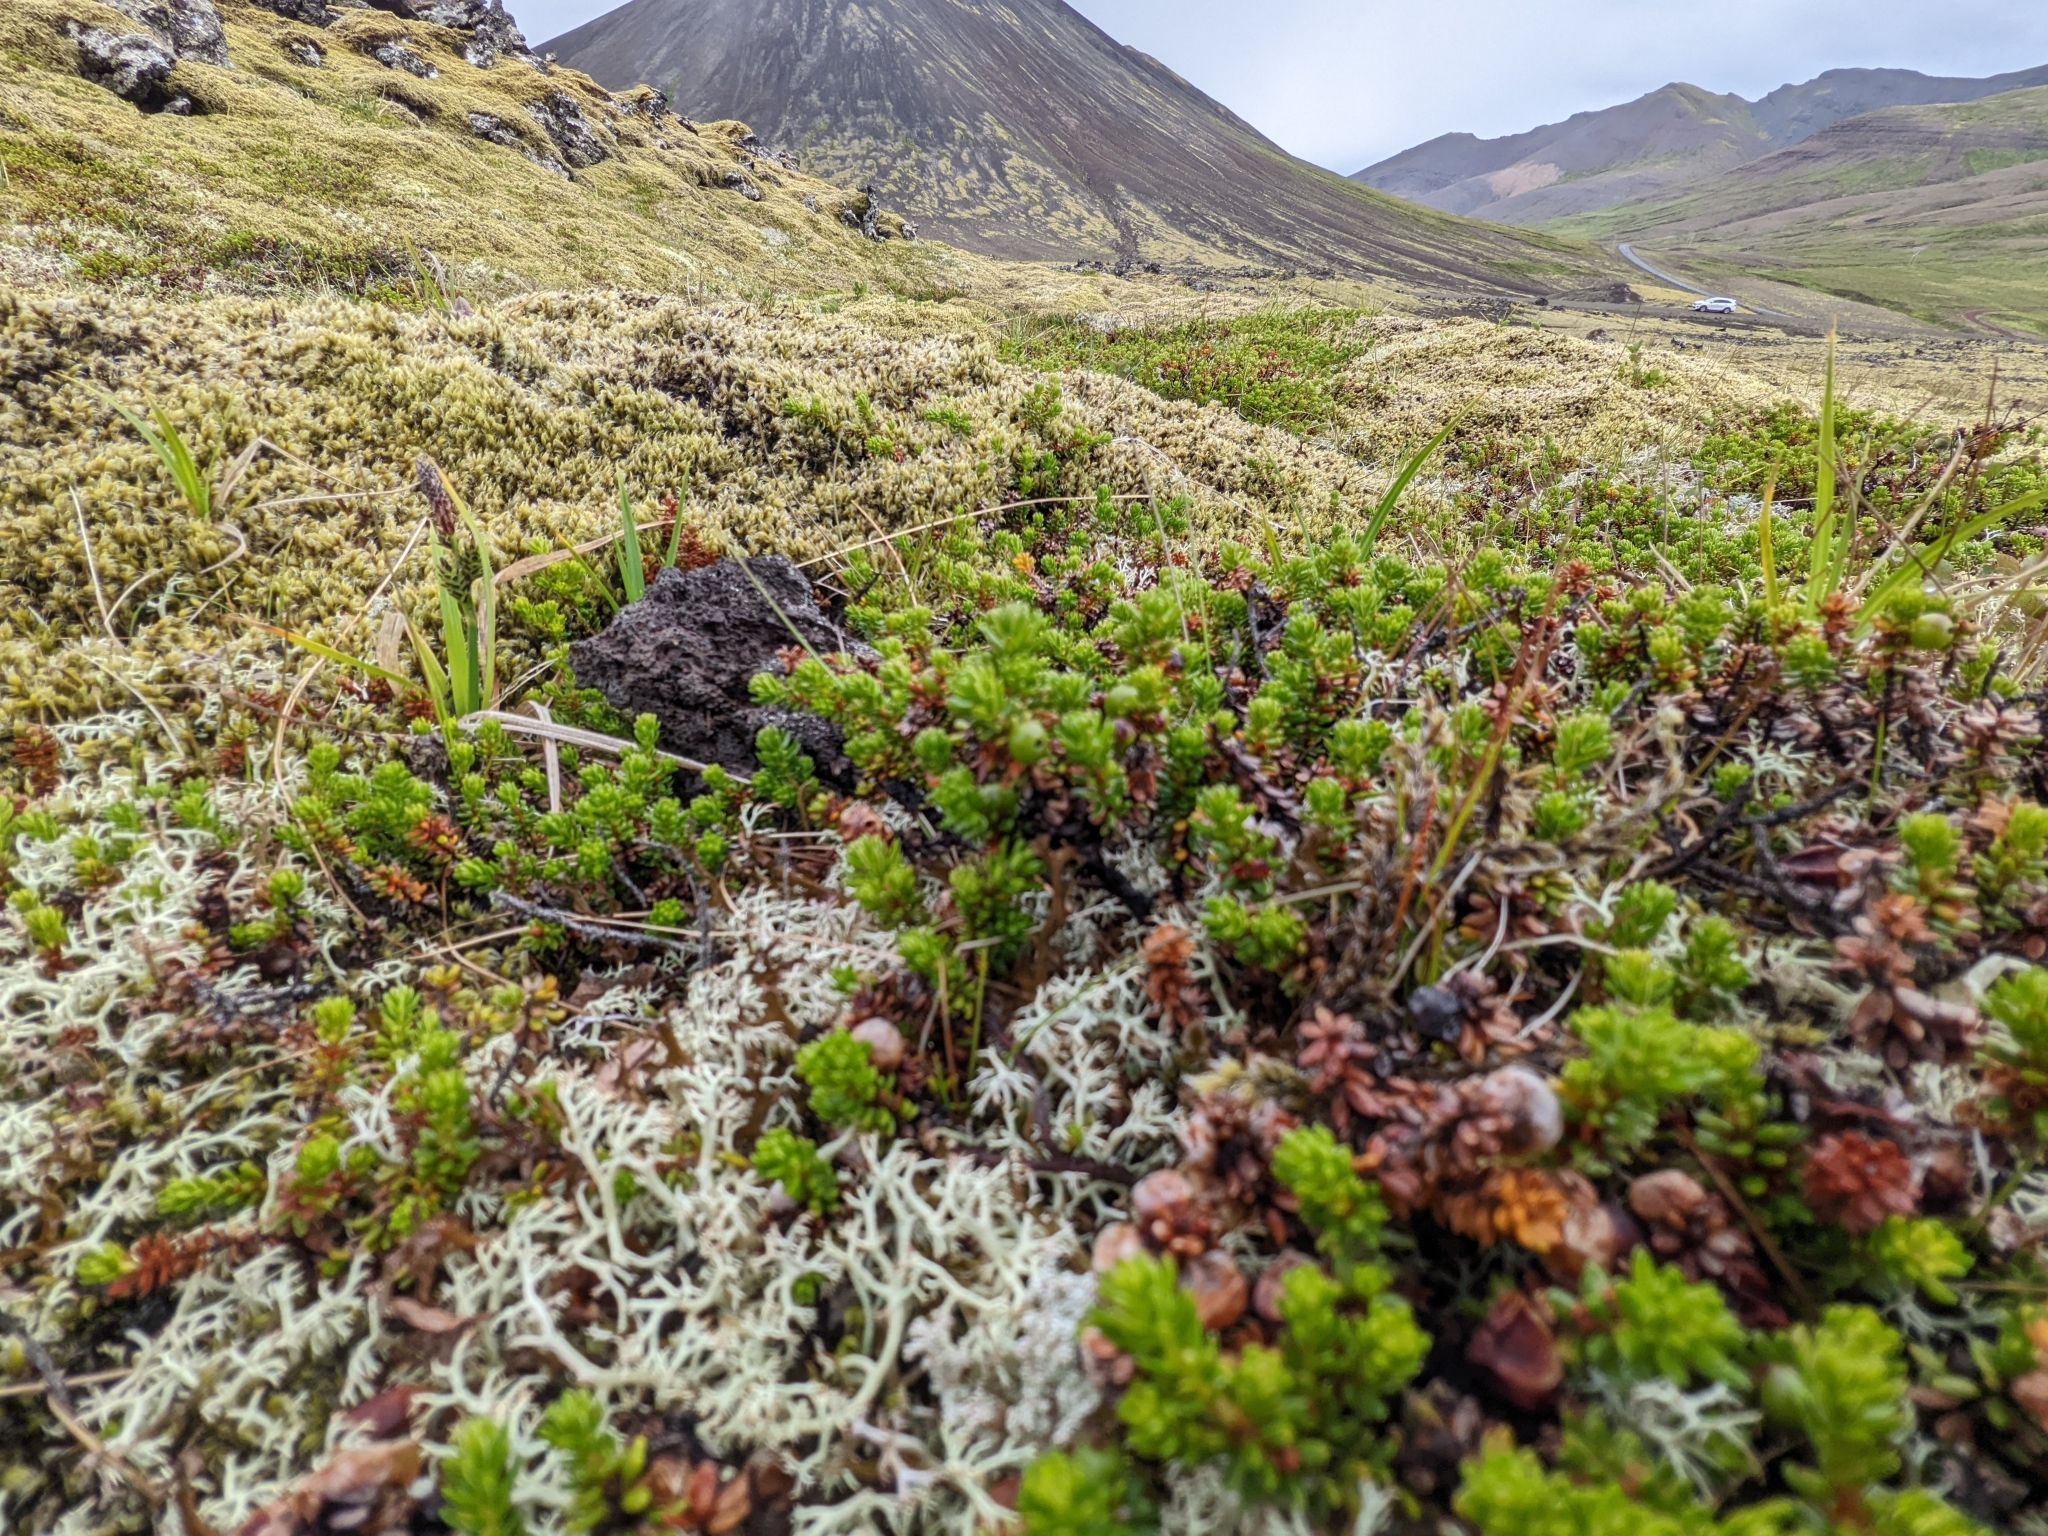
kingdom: Plantae
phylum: Tracheophyta
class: Magnoliopsida
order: Ericales
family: Ericaceae
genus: Empetrum
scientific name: Empetrum nigrum
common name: Black crowberry
